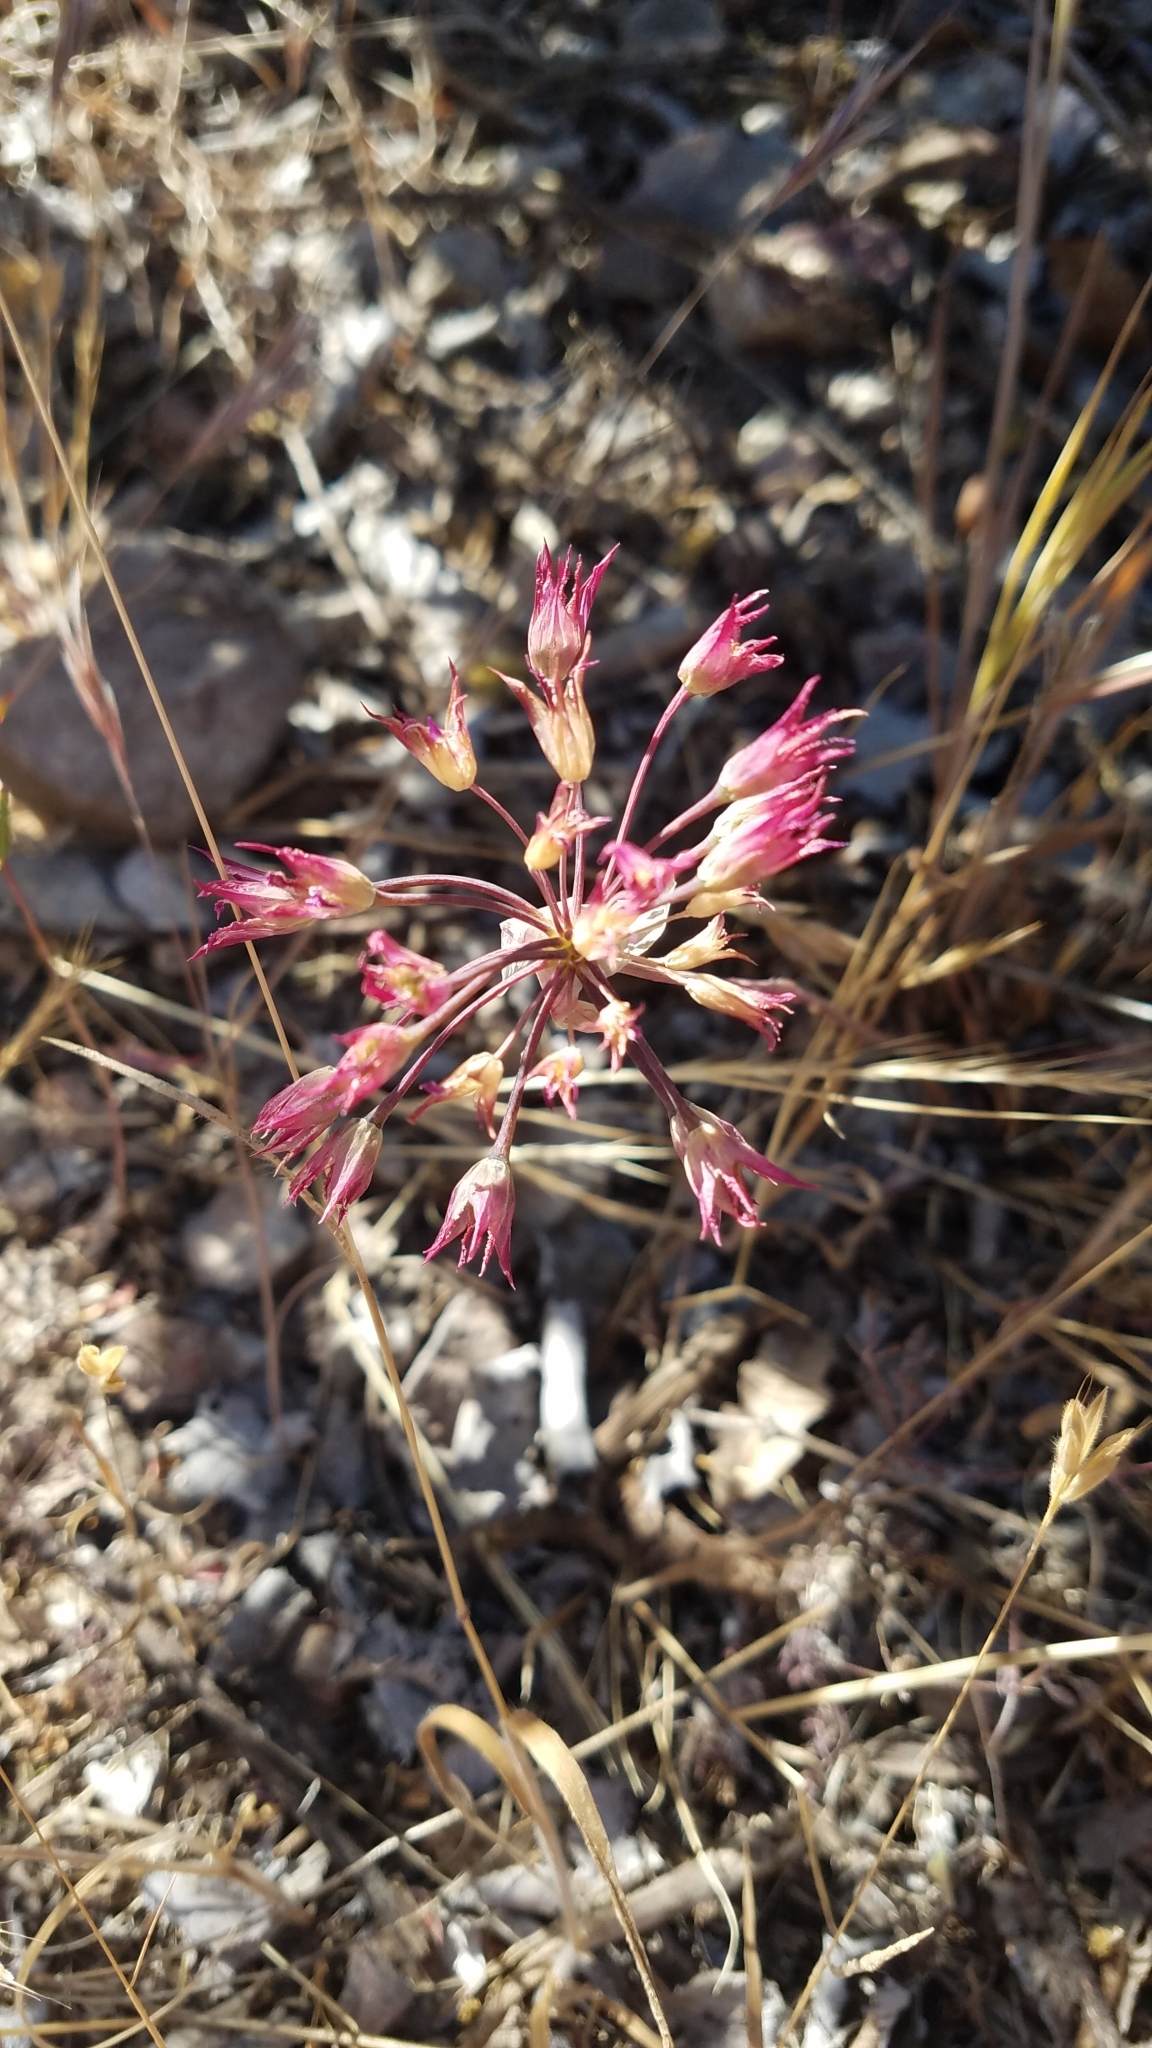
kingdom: Plantae
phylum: Tracheophyta
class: Liliopsida
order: Asparagales
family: Amaryllidaceae
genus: Allium
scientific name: Allium crispum
